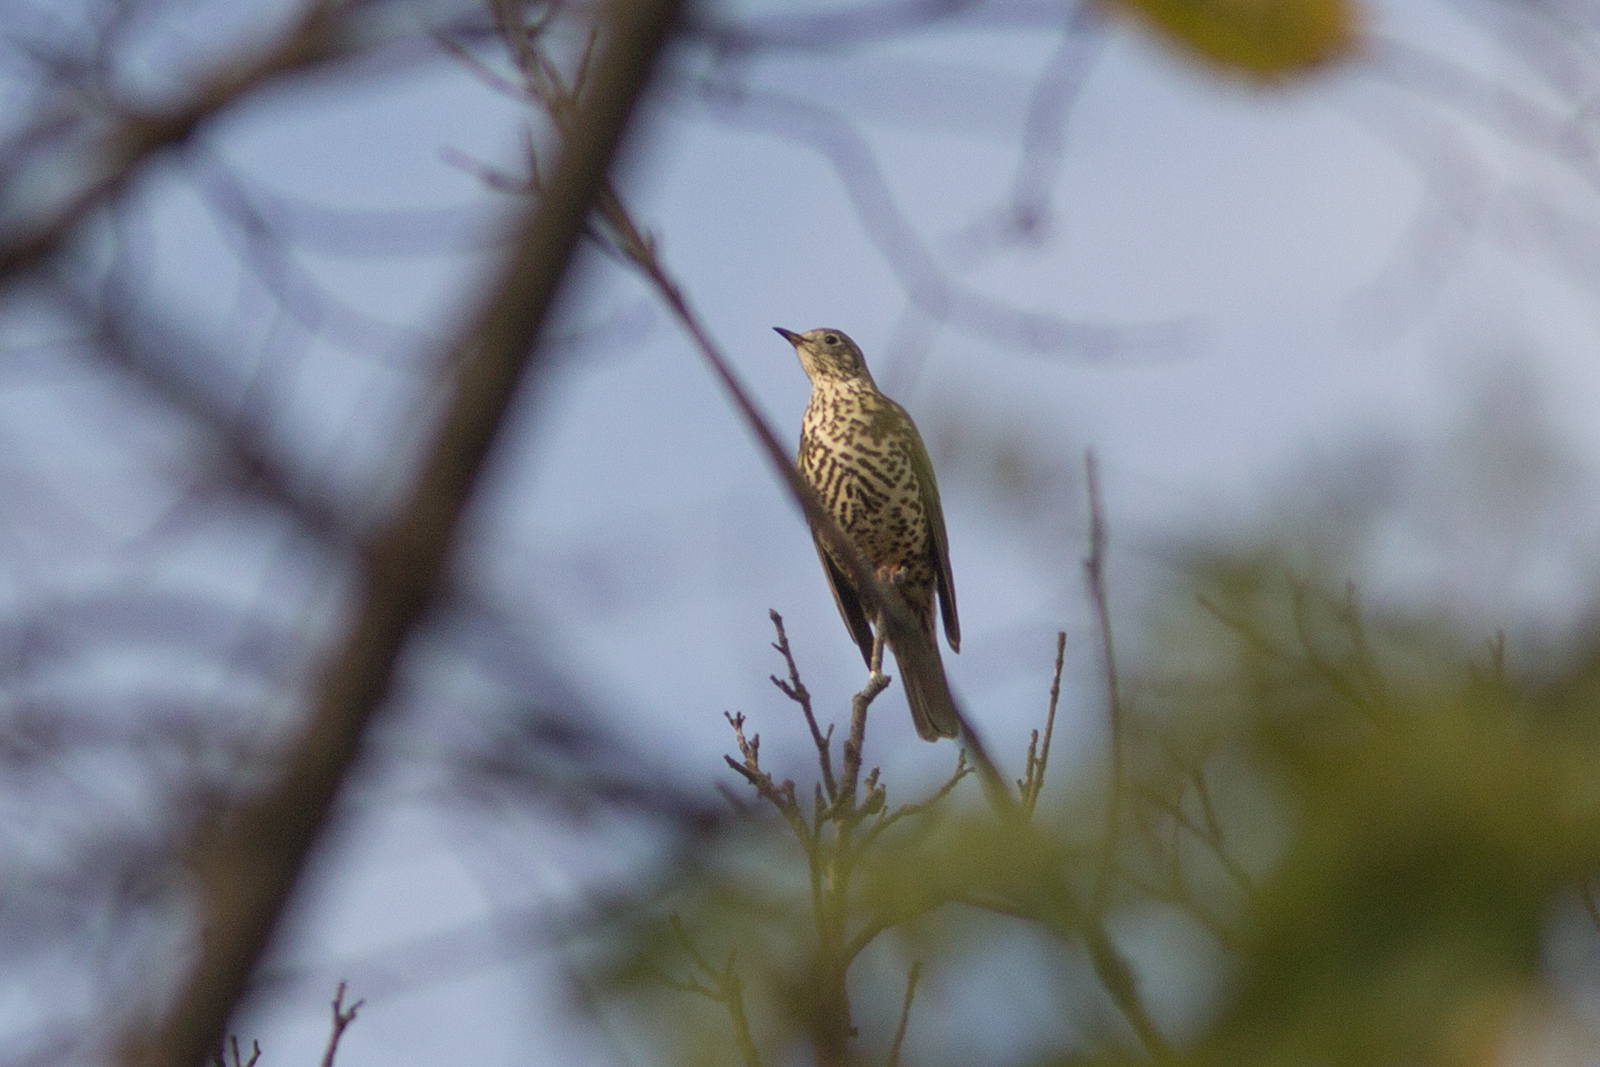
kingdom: Animalia
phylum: Chordata
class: Aves
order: Passeriformes
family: Turdidae
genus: Turdus
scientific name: Turdus viscivorus
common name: Mistle thrush
